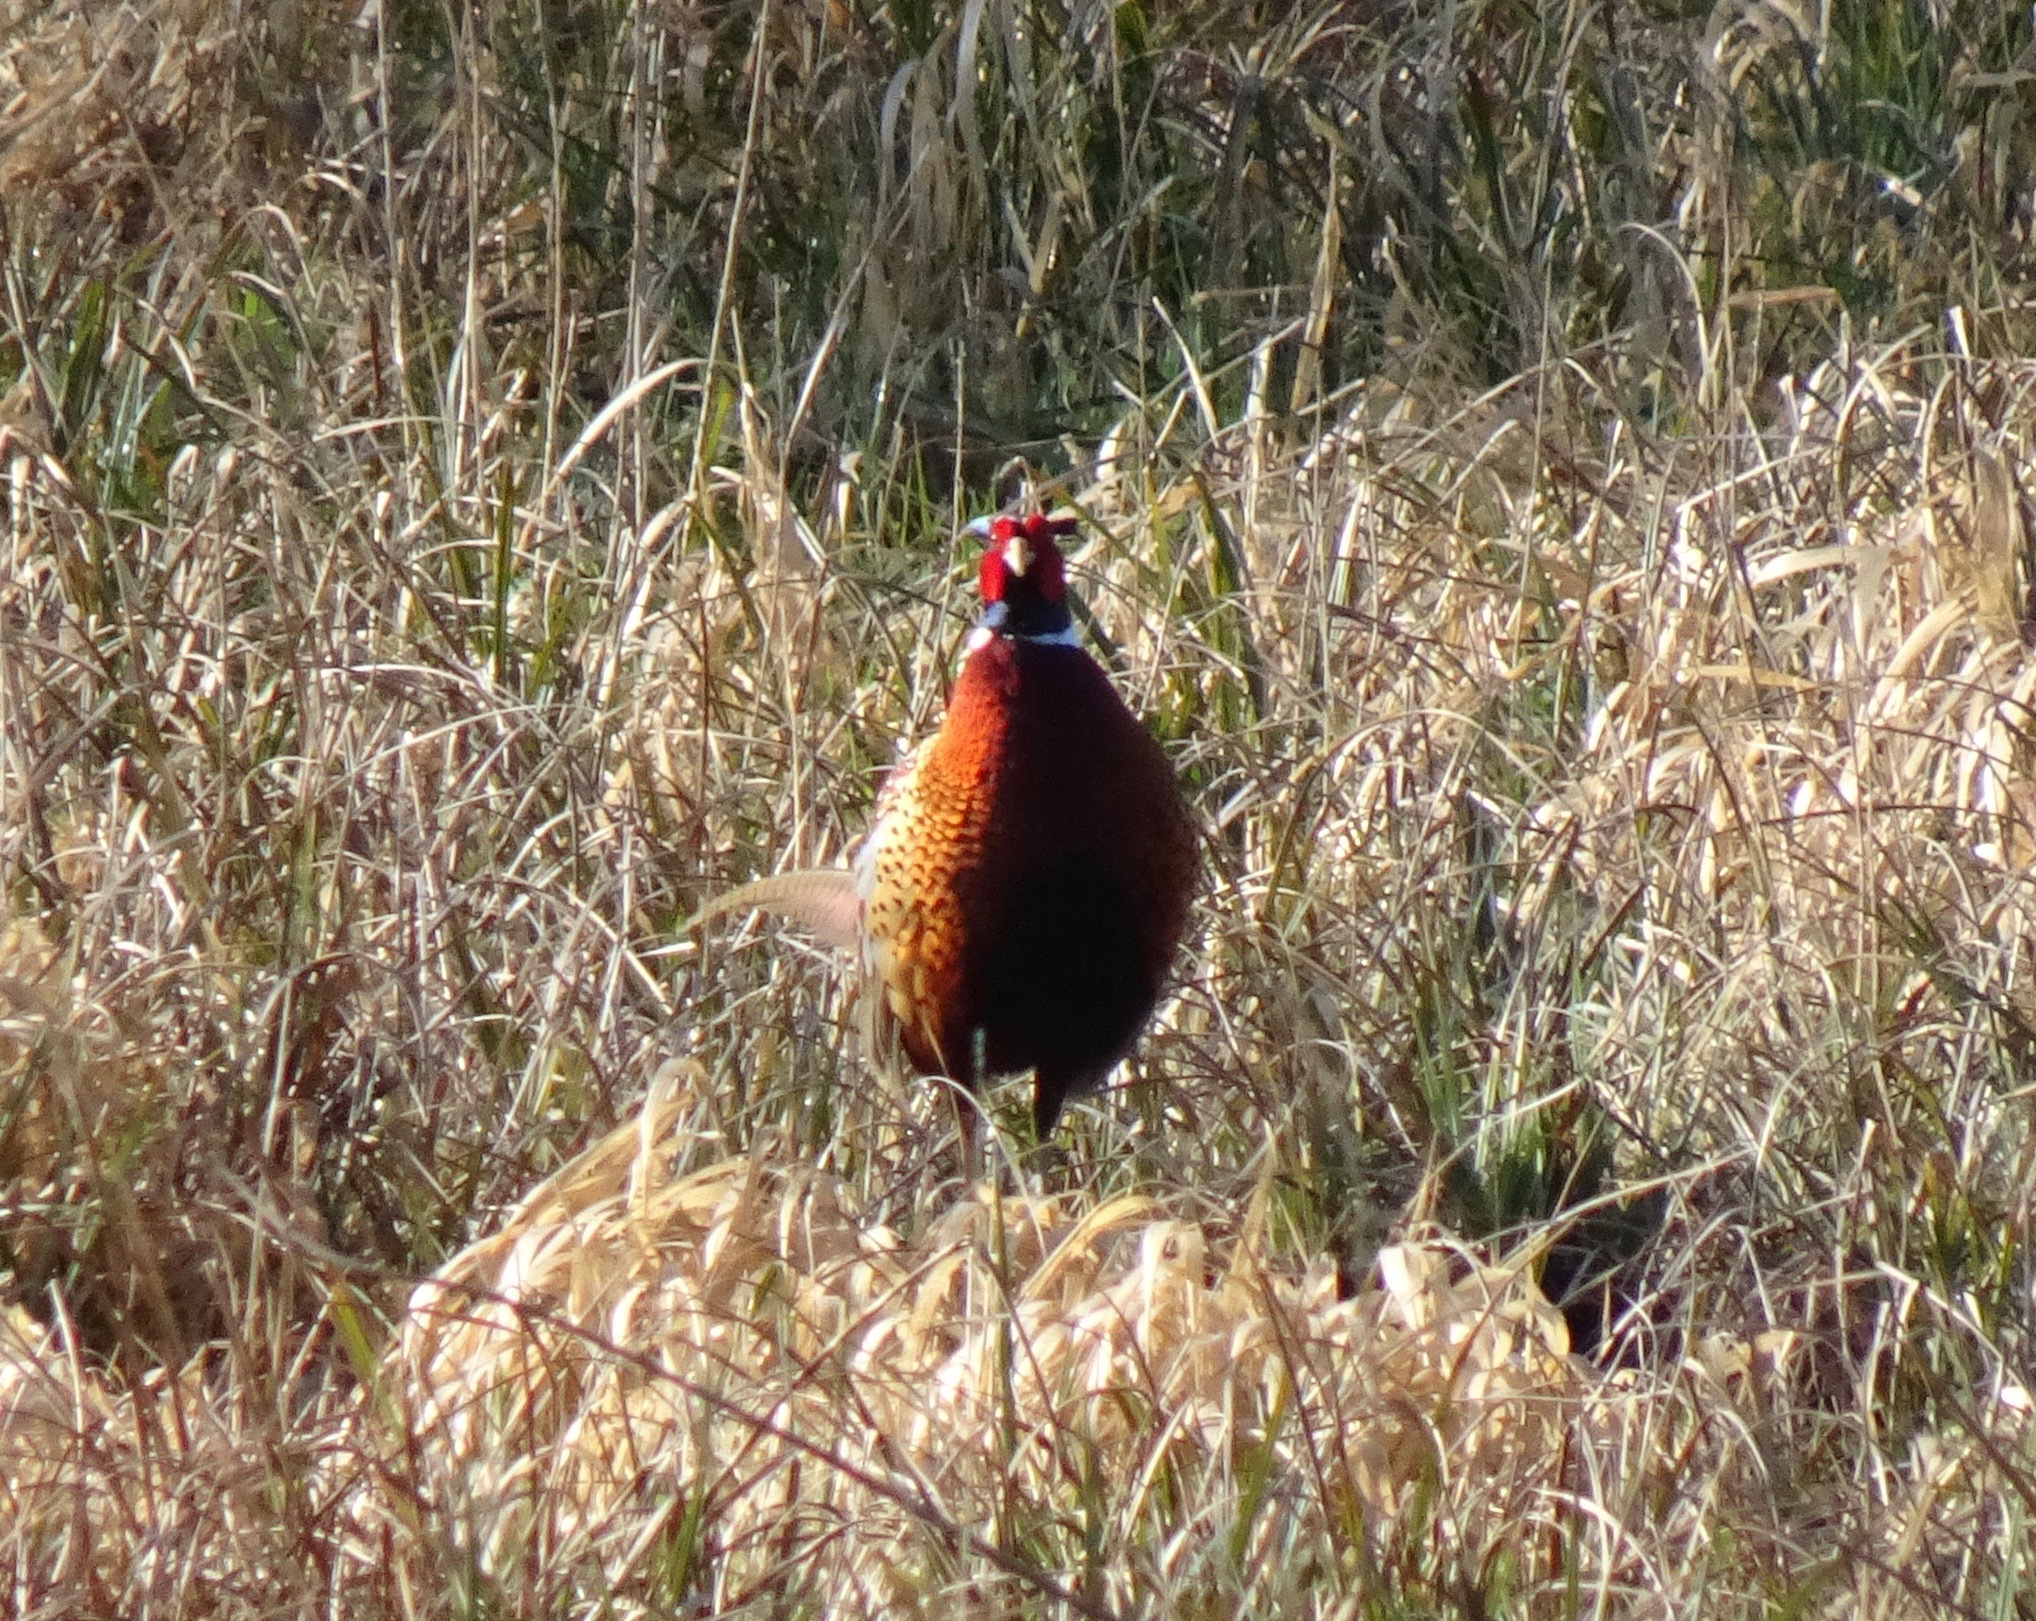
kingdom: Animalia
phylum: Chordata
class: Aves
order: Galliformes
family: Phasianidae
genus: Phasianus
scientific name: Phasianus colchicus
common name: Common pheasant
